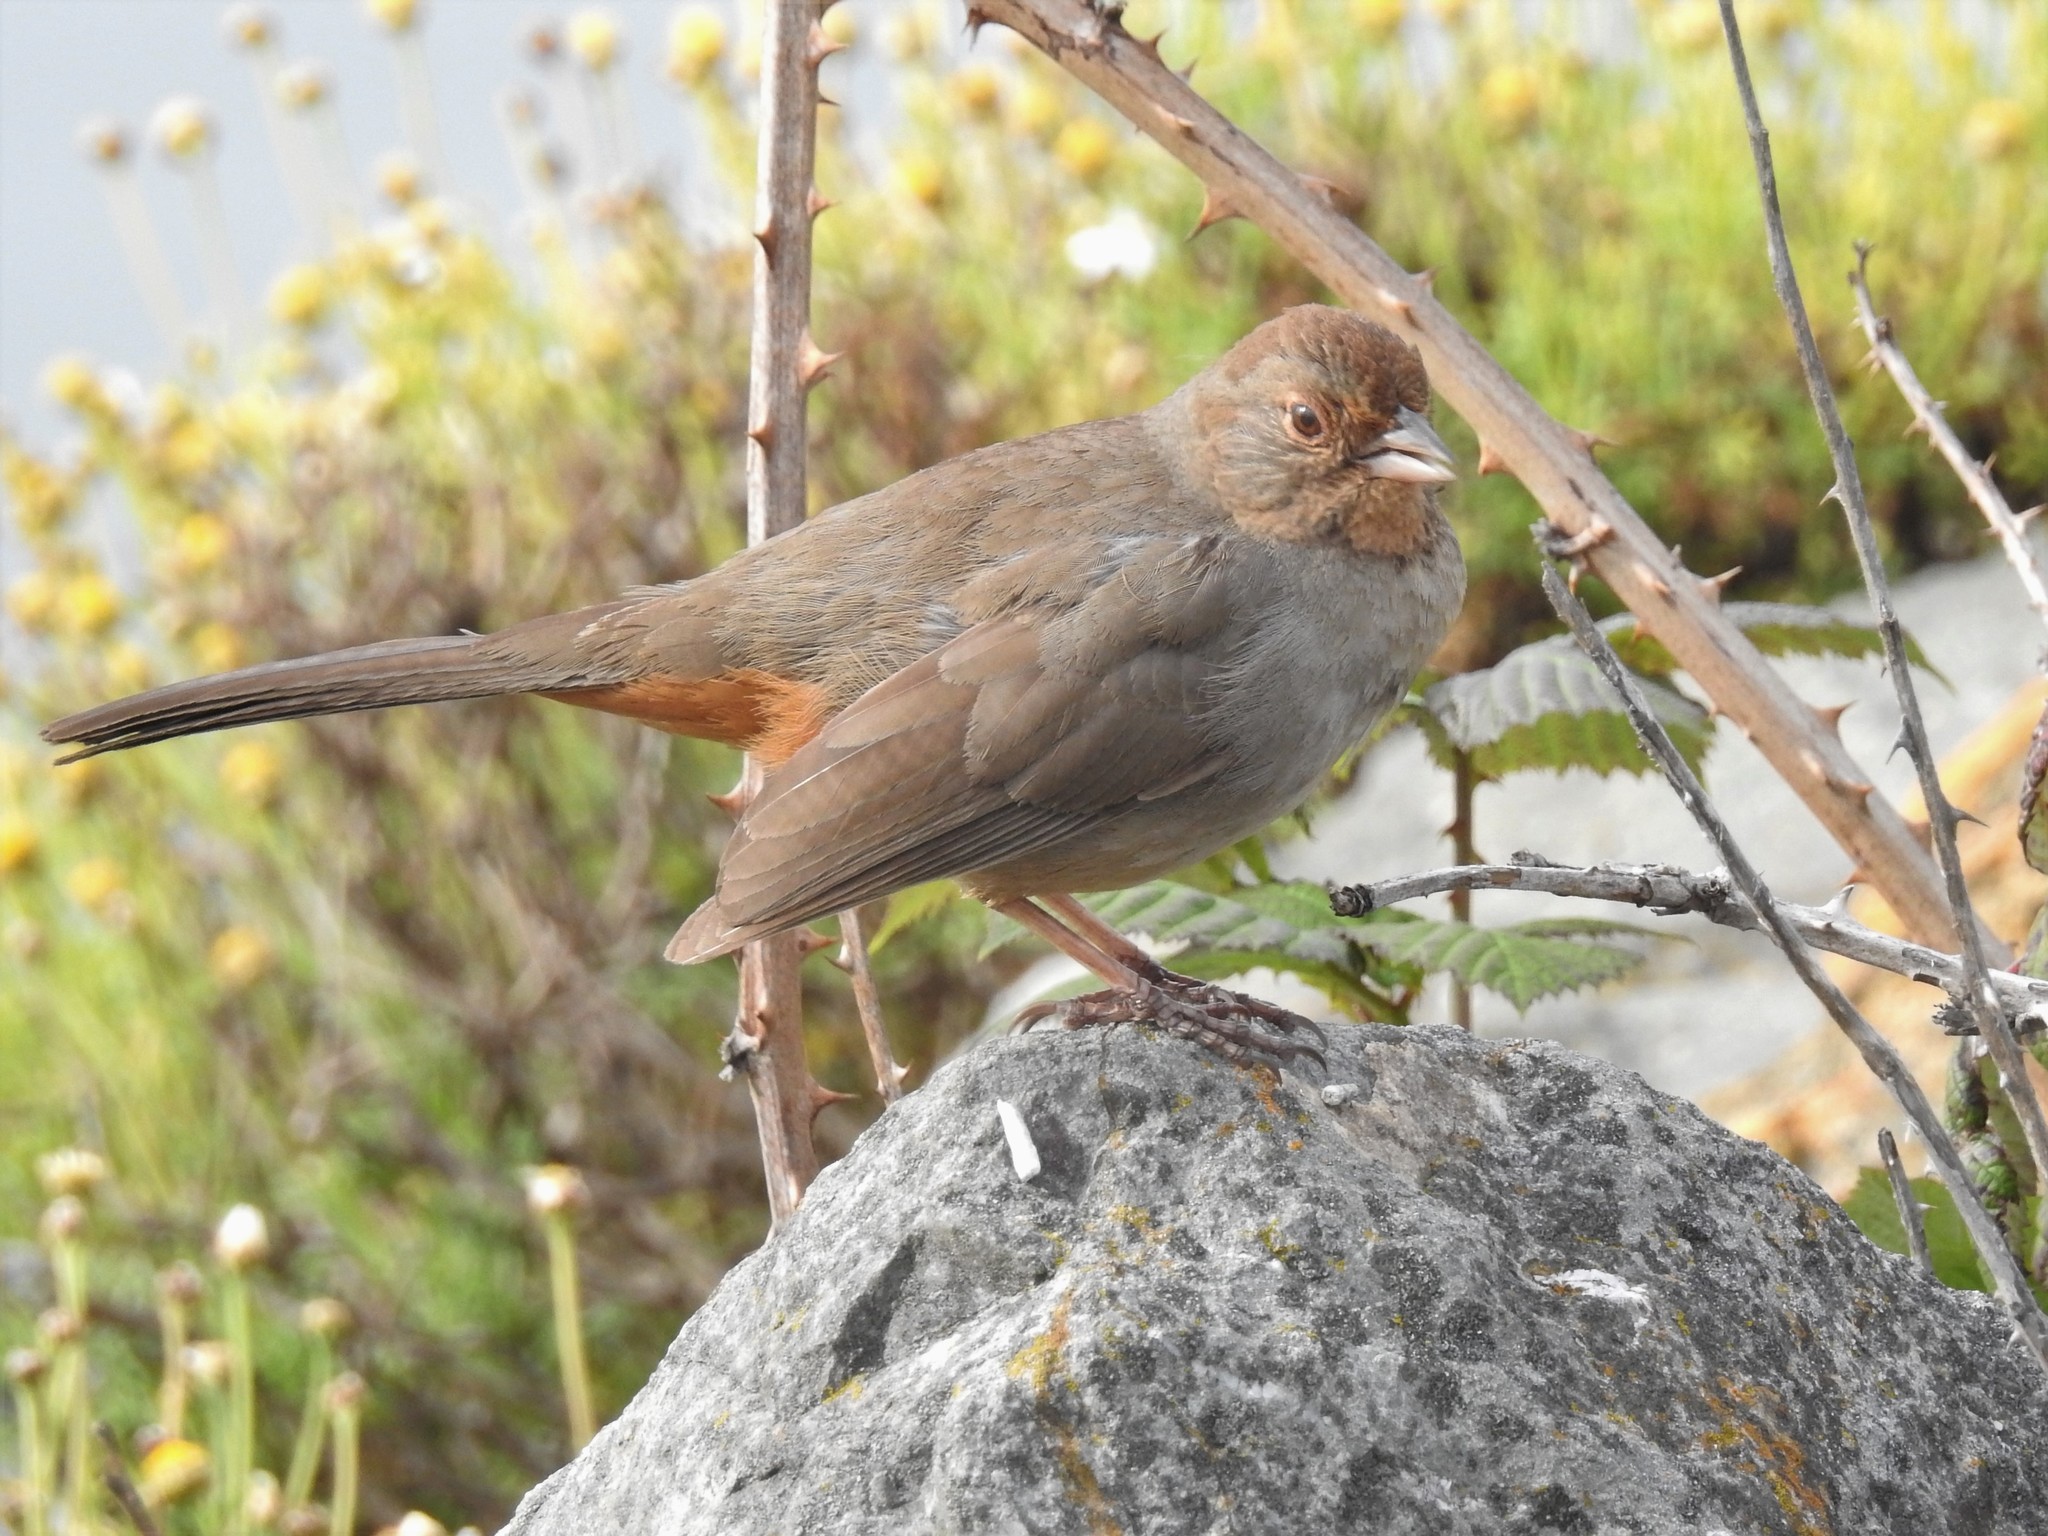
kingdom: Animalia
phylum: Chordata
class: Aves
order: Passeriformes
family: Passerellidae
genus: Melozone
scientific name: Melozone crissalis
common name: California towhee
